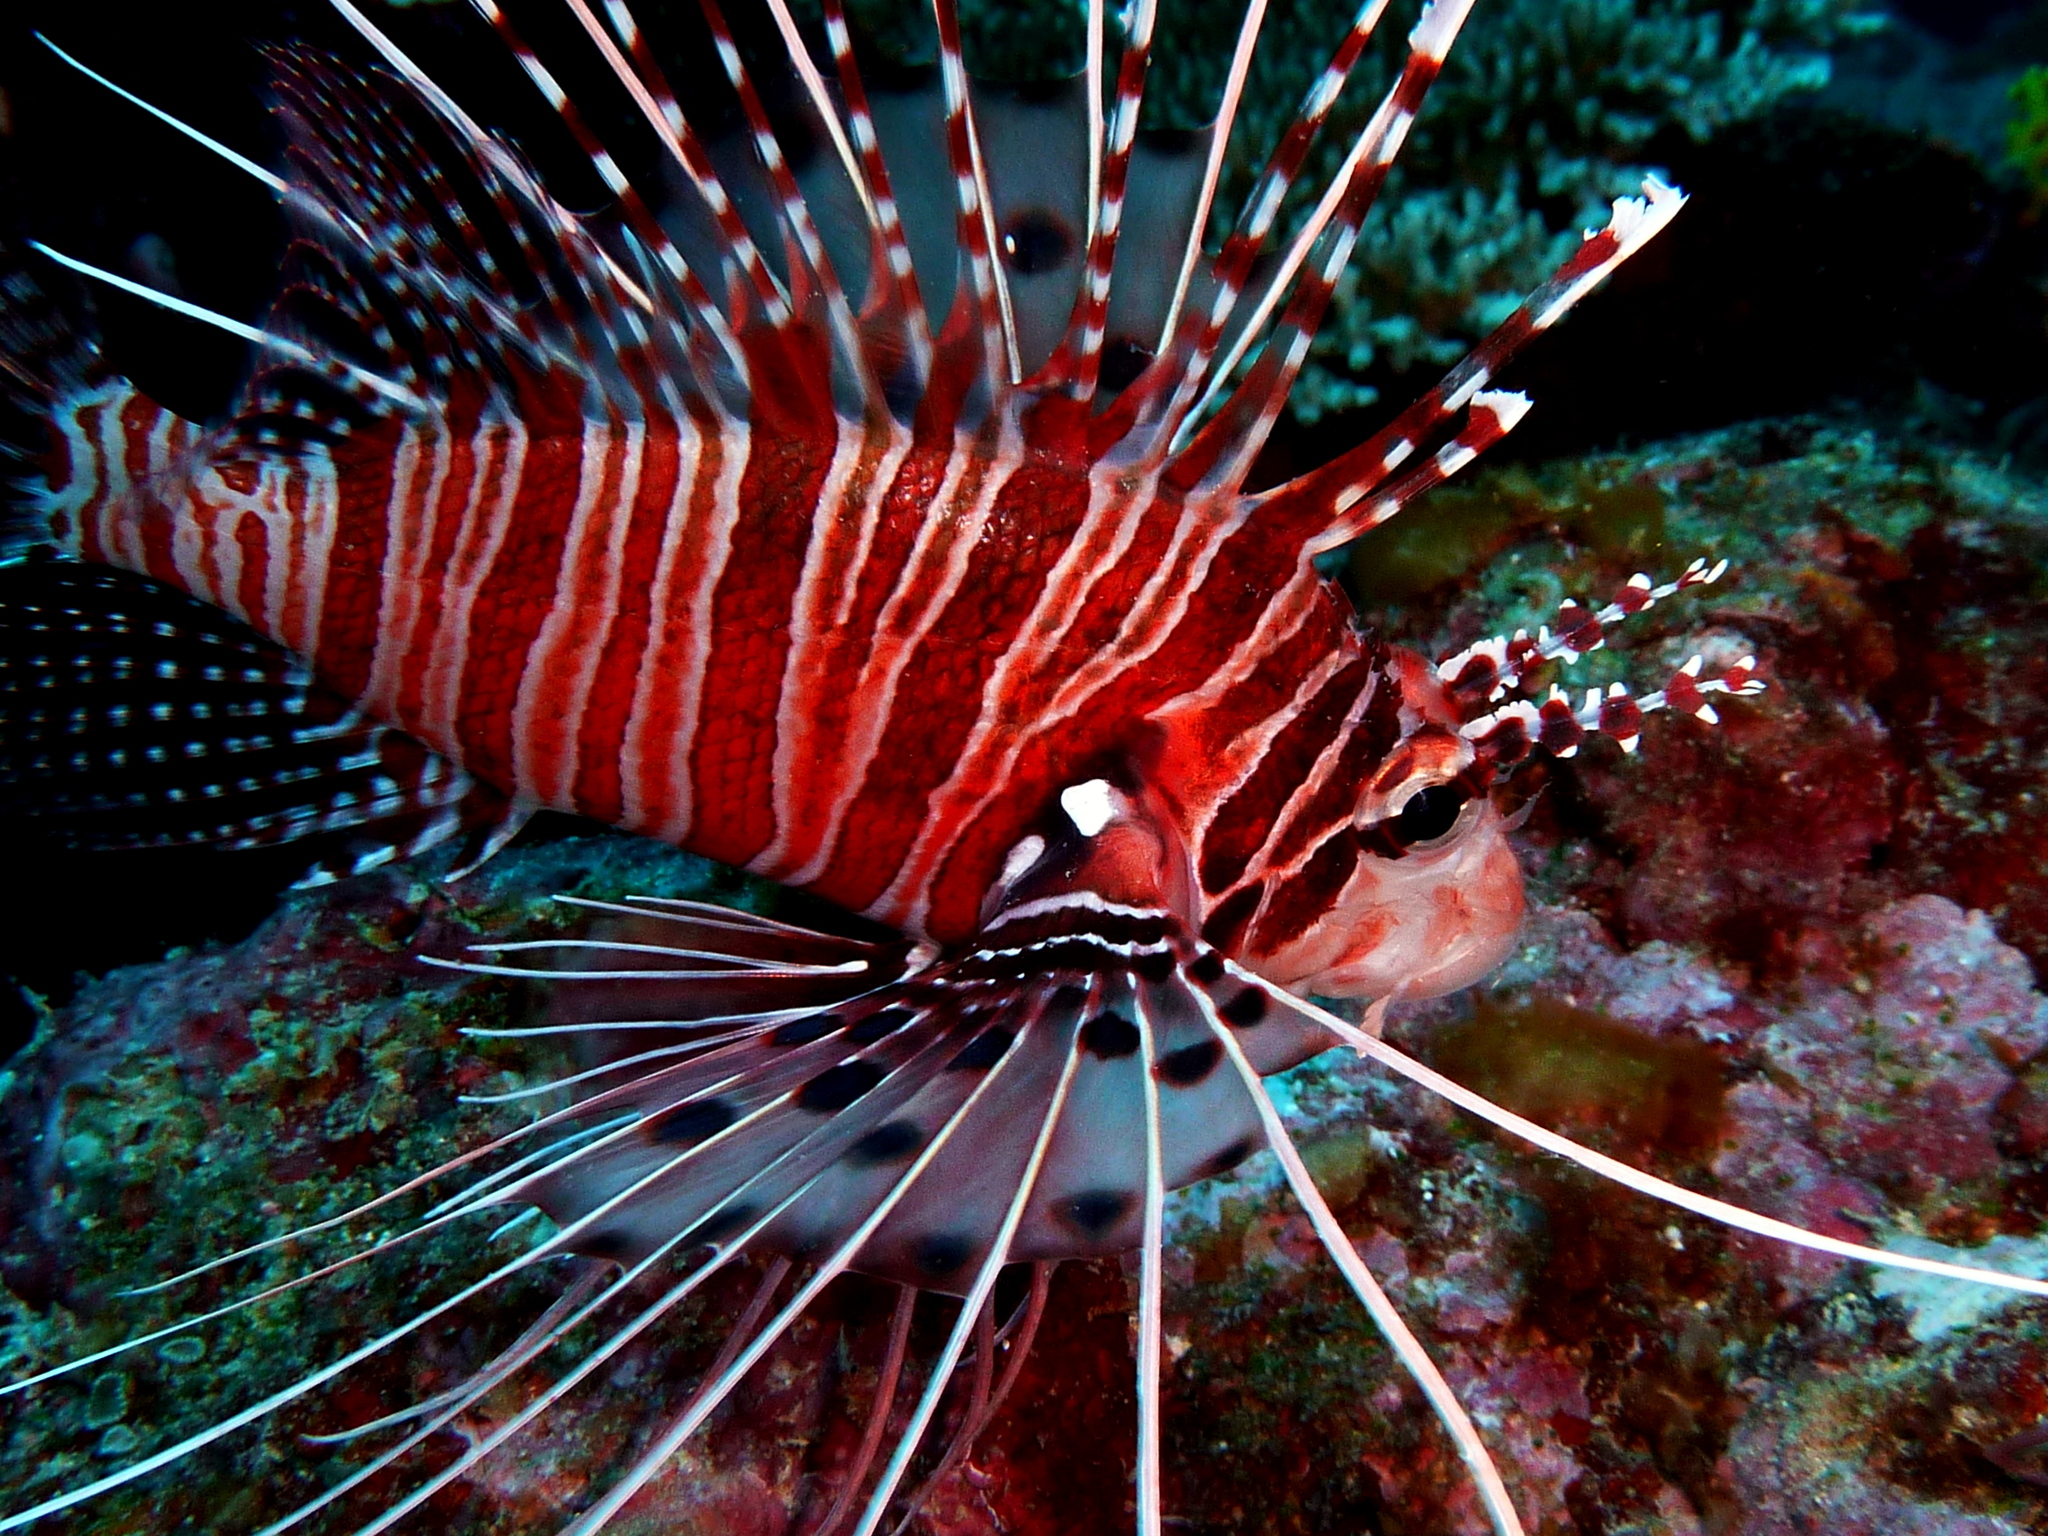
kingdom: Animalia
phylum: Chordata
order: Scorpaeniformes
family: Scorpaenidae
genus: Pterois
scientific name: Pterois antennata
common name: Spotfin lionfish
